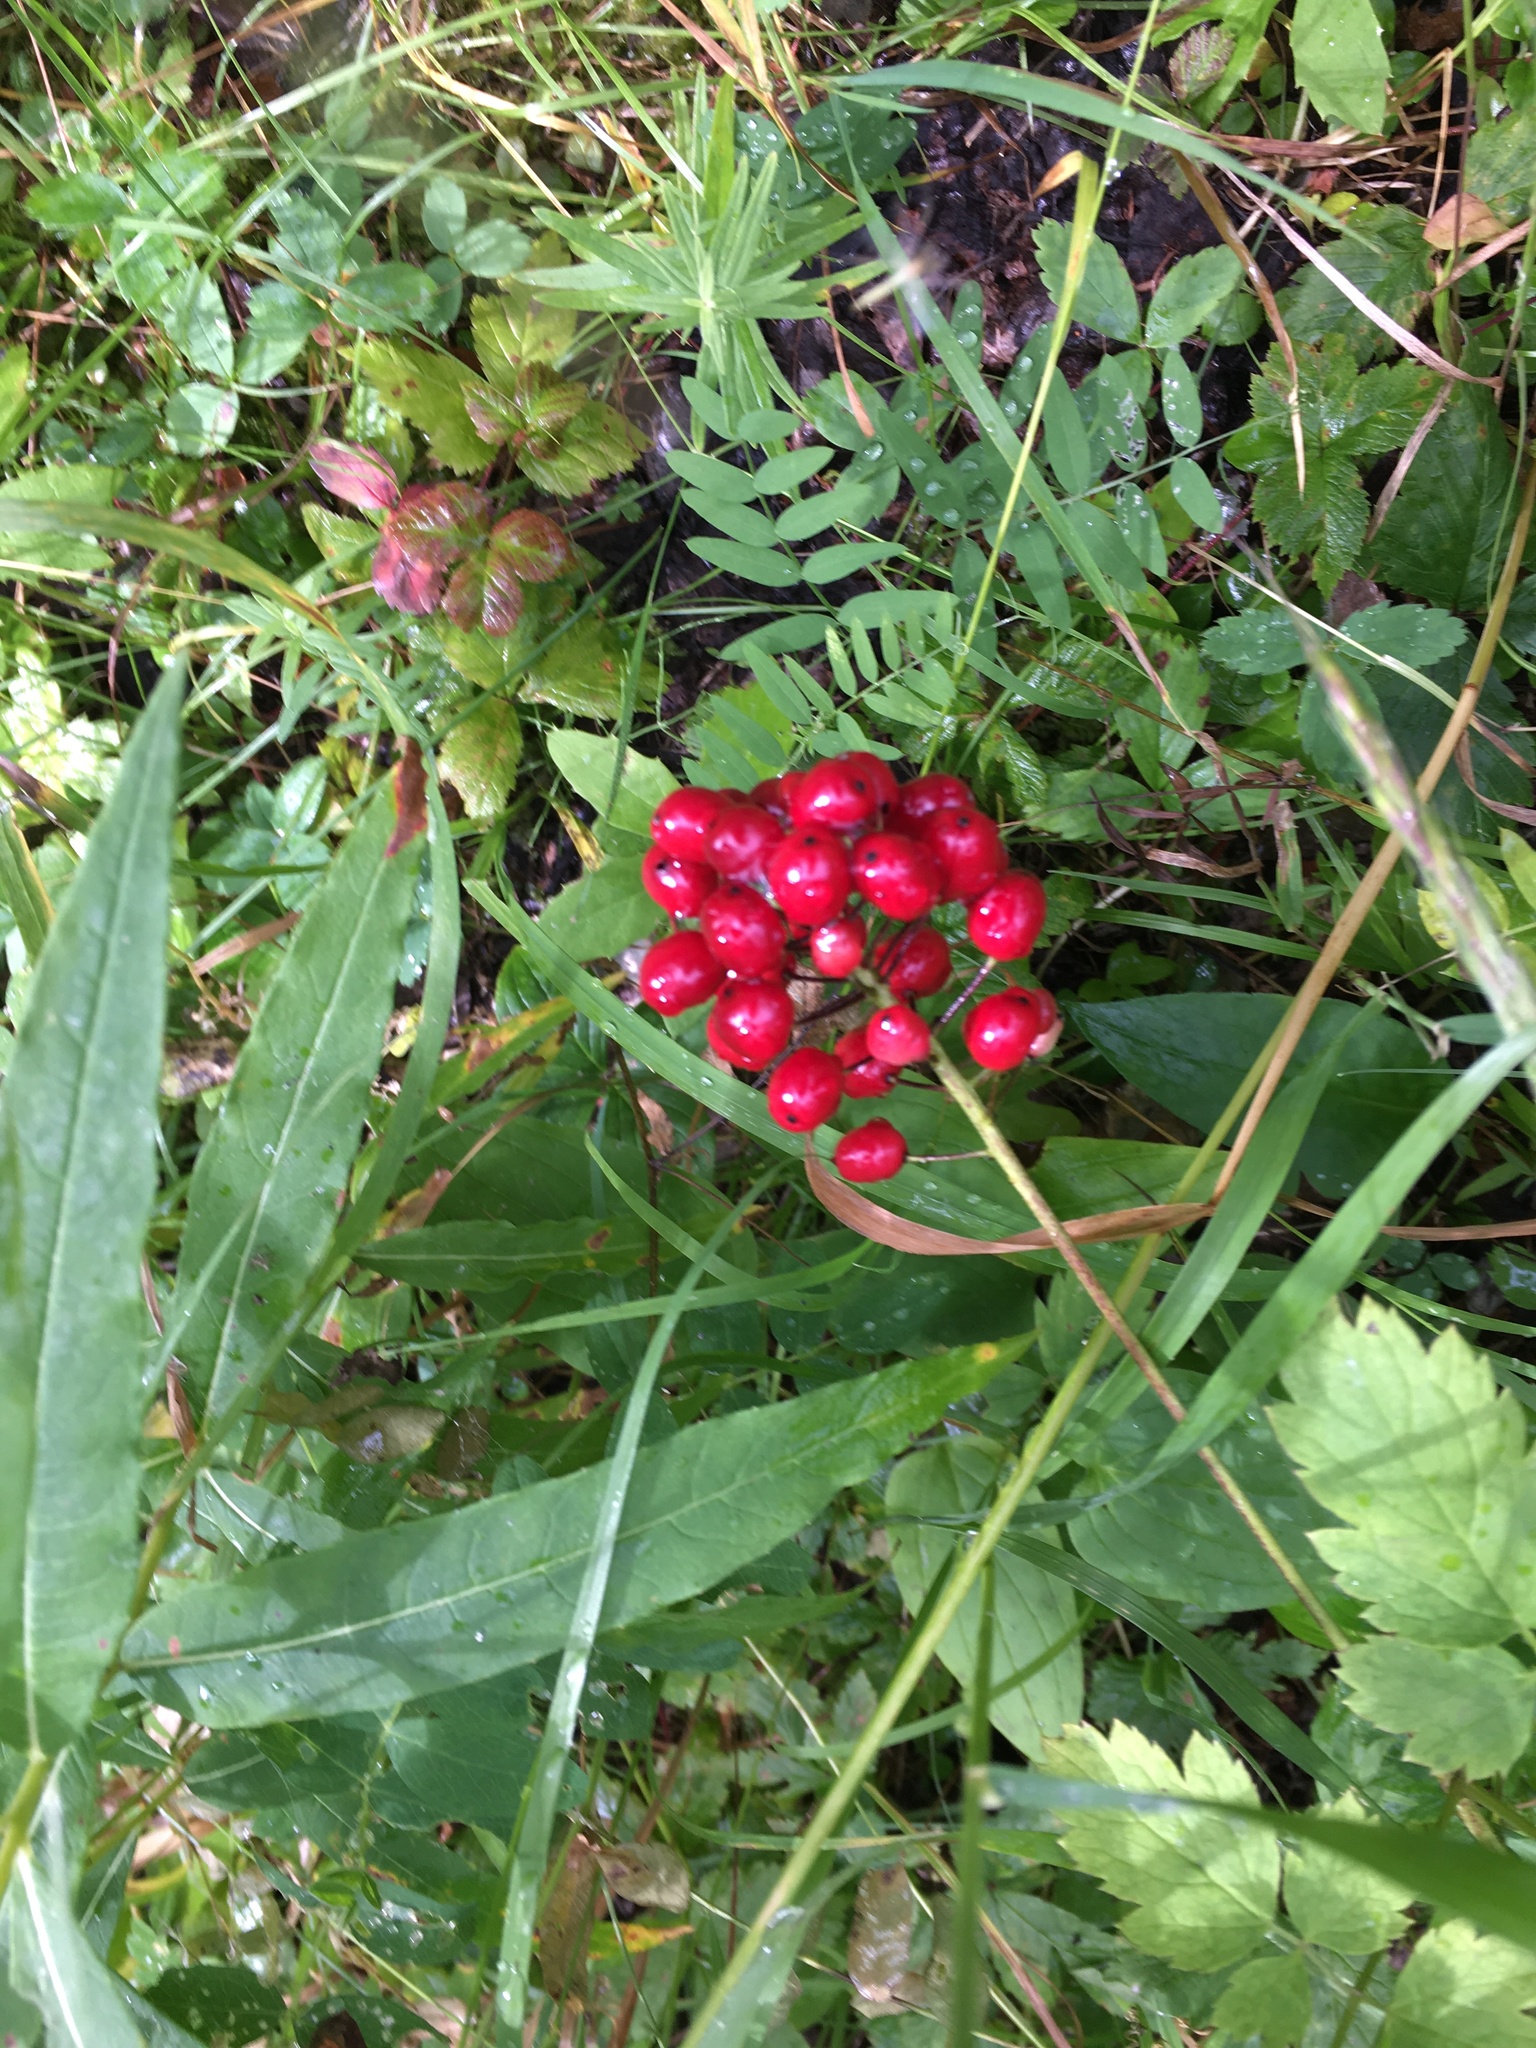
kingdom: Plantae
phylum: Tracheophyta
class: Magnoliopsida
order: Ranunculales
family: Ranunculaceae
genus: Actaea
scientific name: Actaea rubra
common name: Red baneberry
